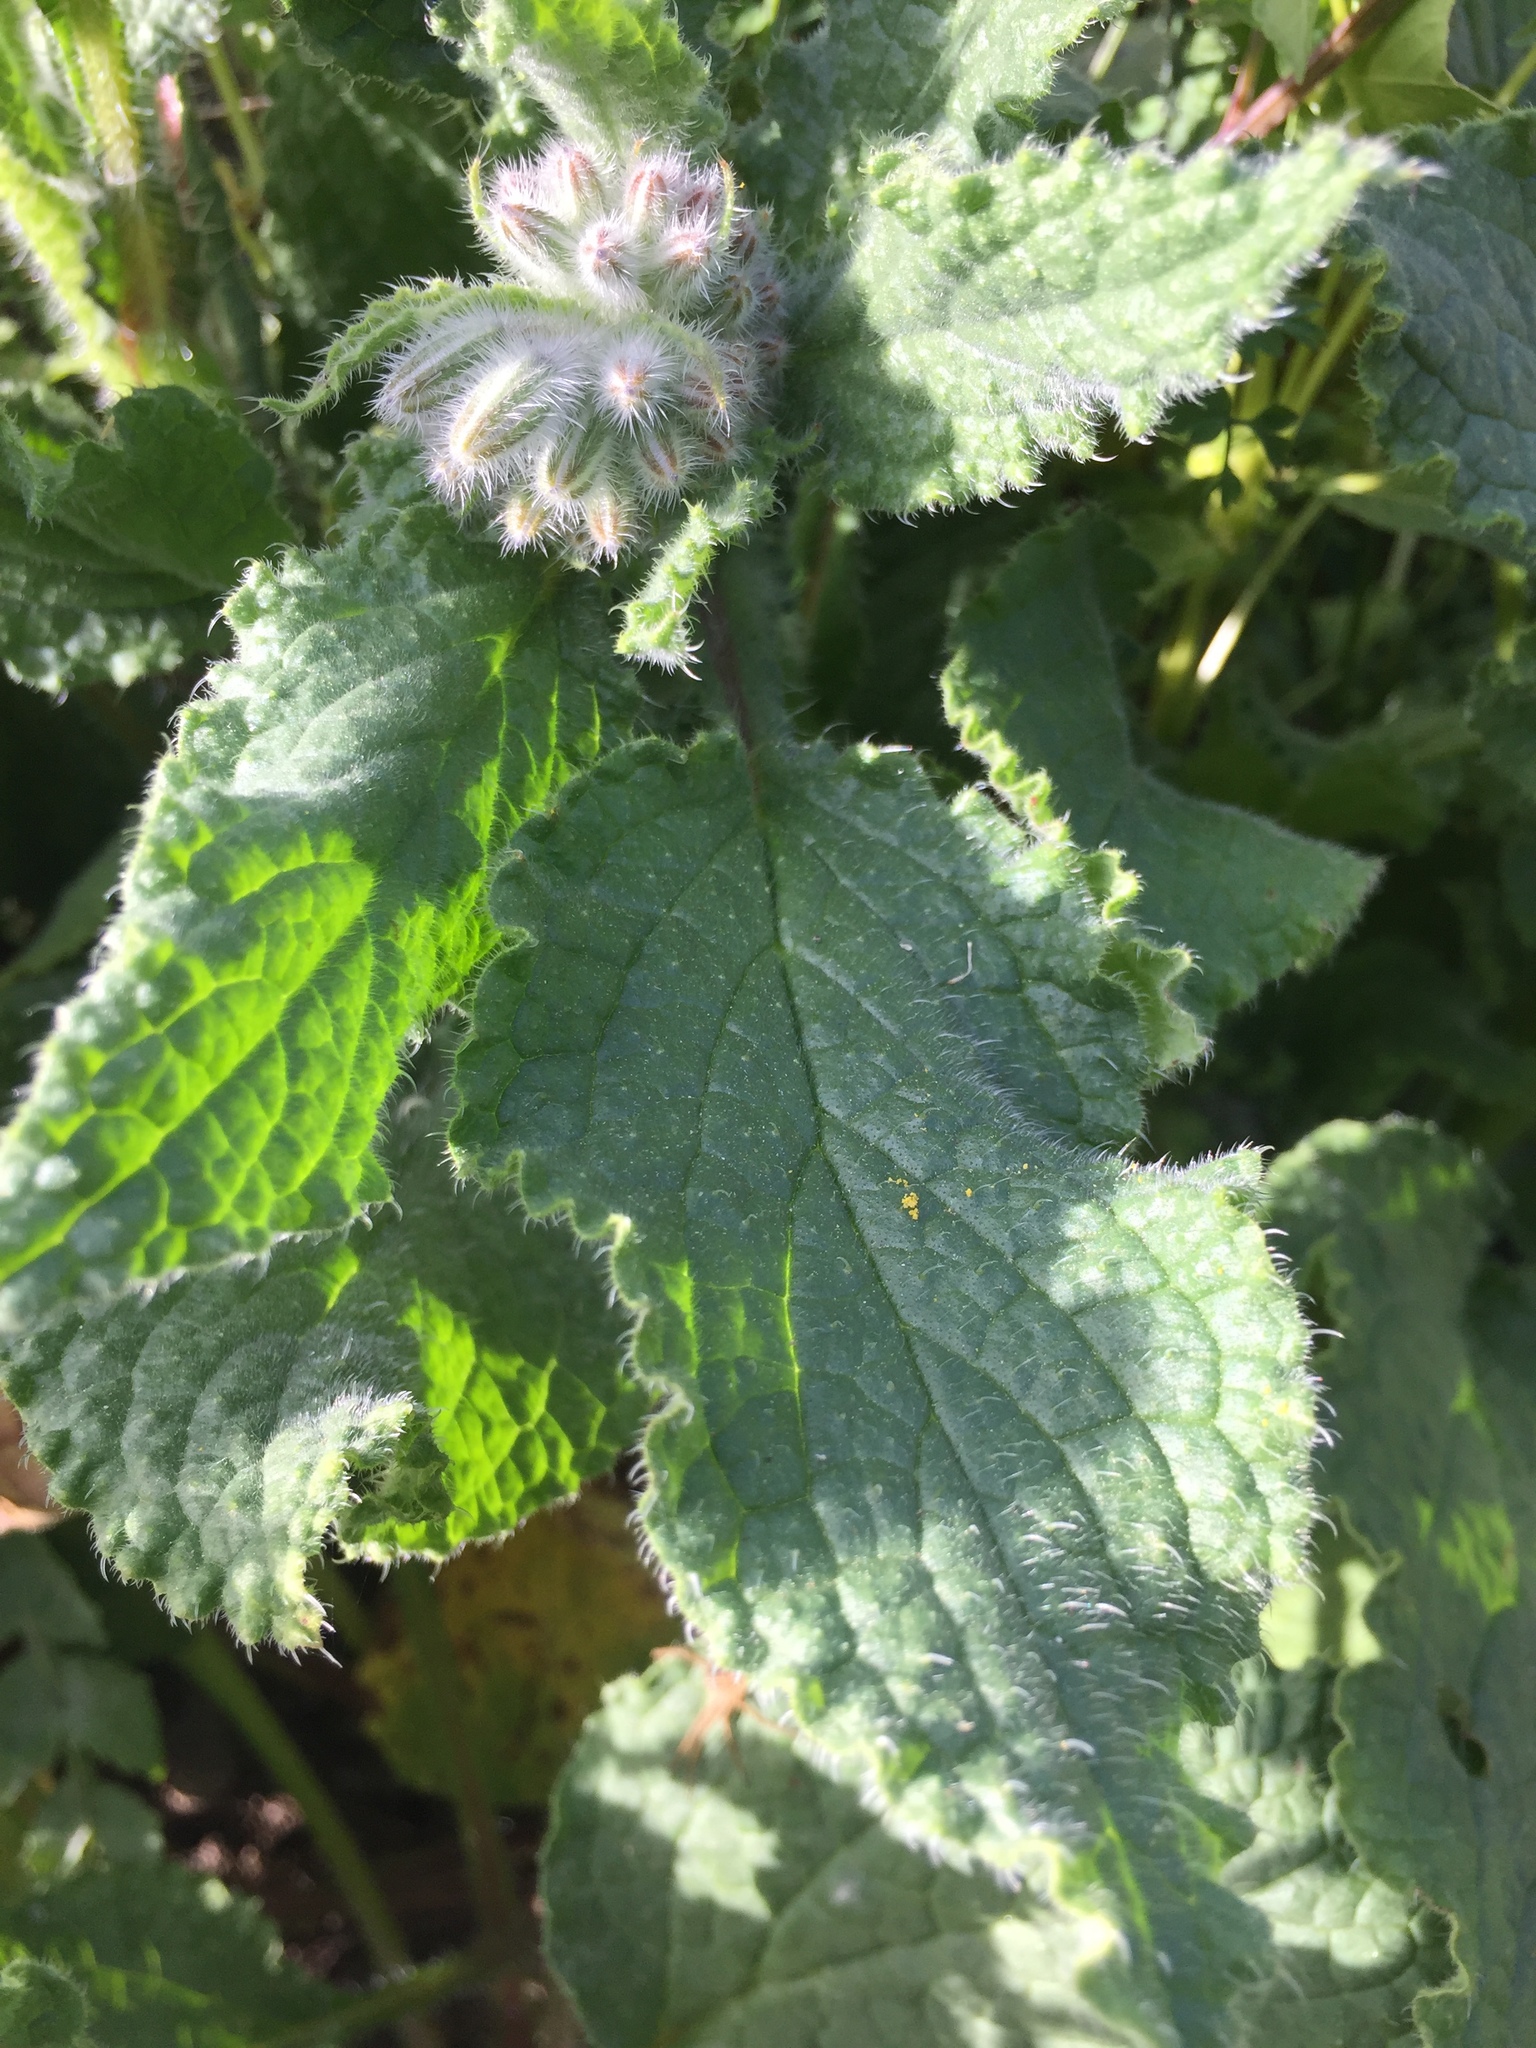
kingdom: Plantae
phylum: Tracheophyta
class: Magnoliopsida
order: Boraginales
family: Boraginaceae
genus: Borago
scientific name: Borago officinalis
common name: Borage
